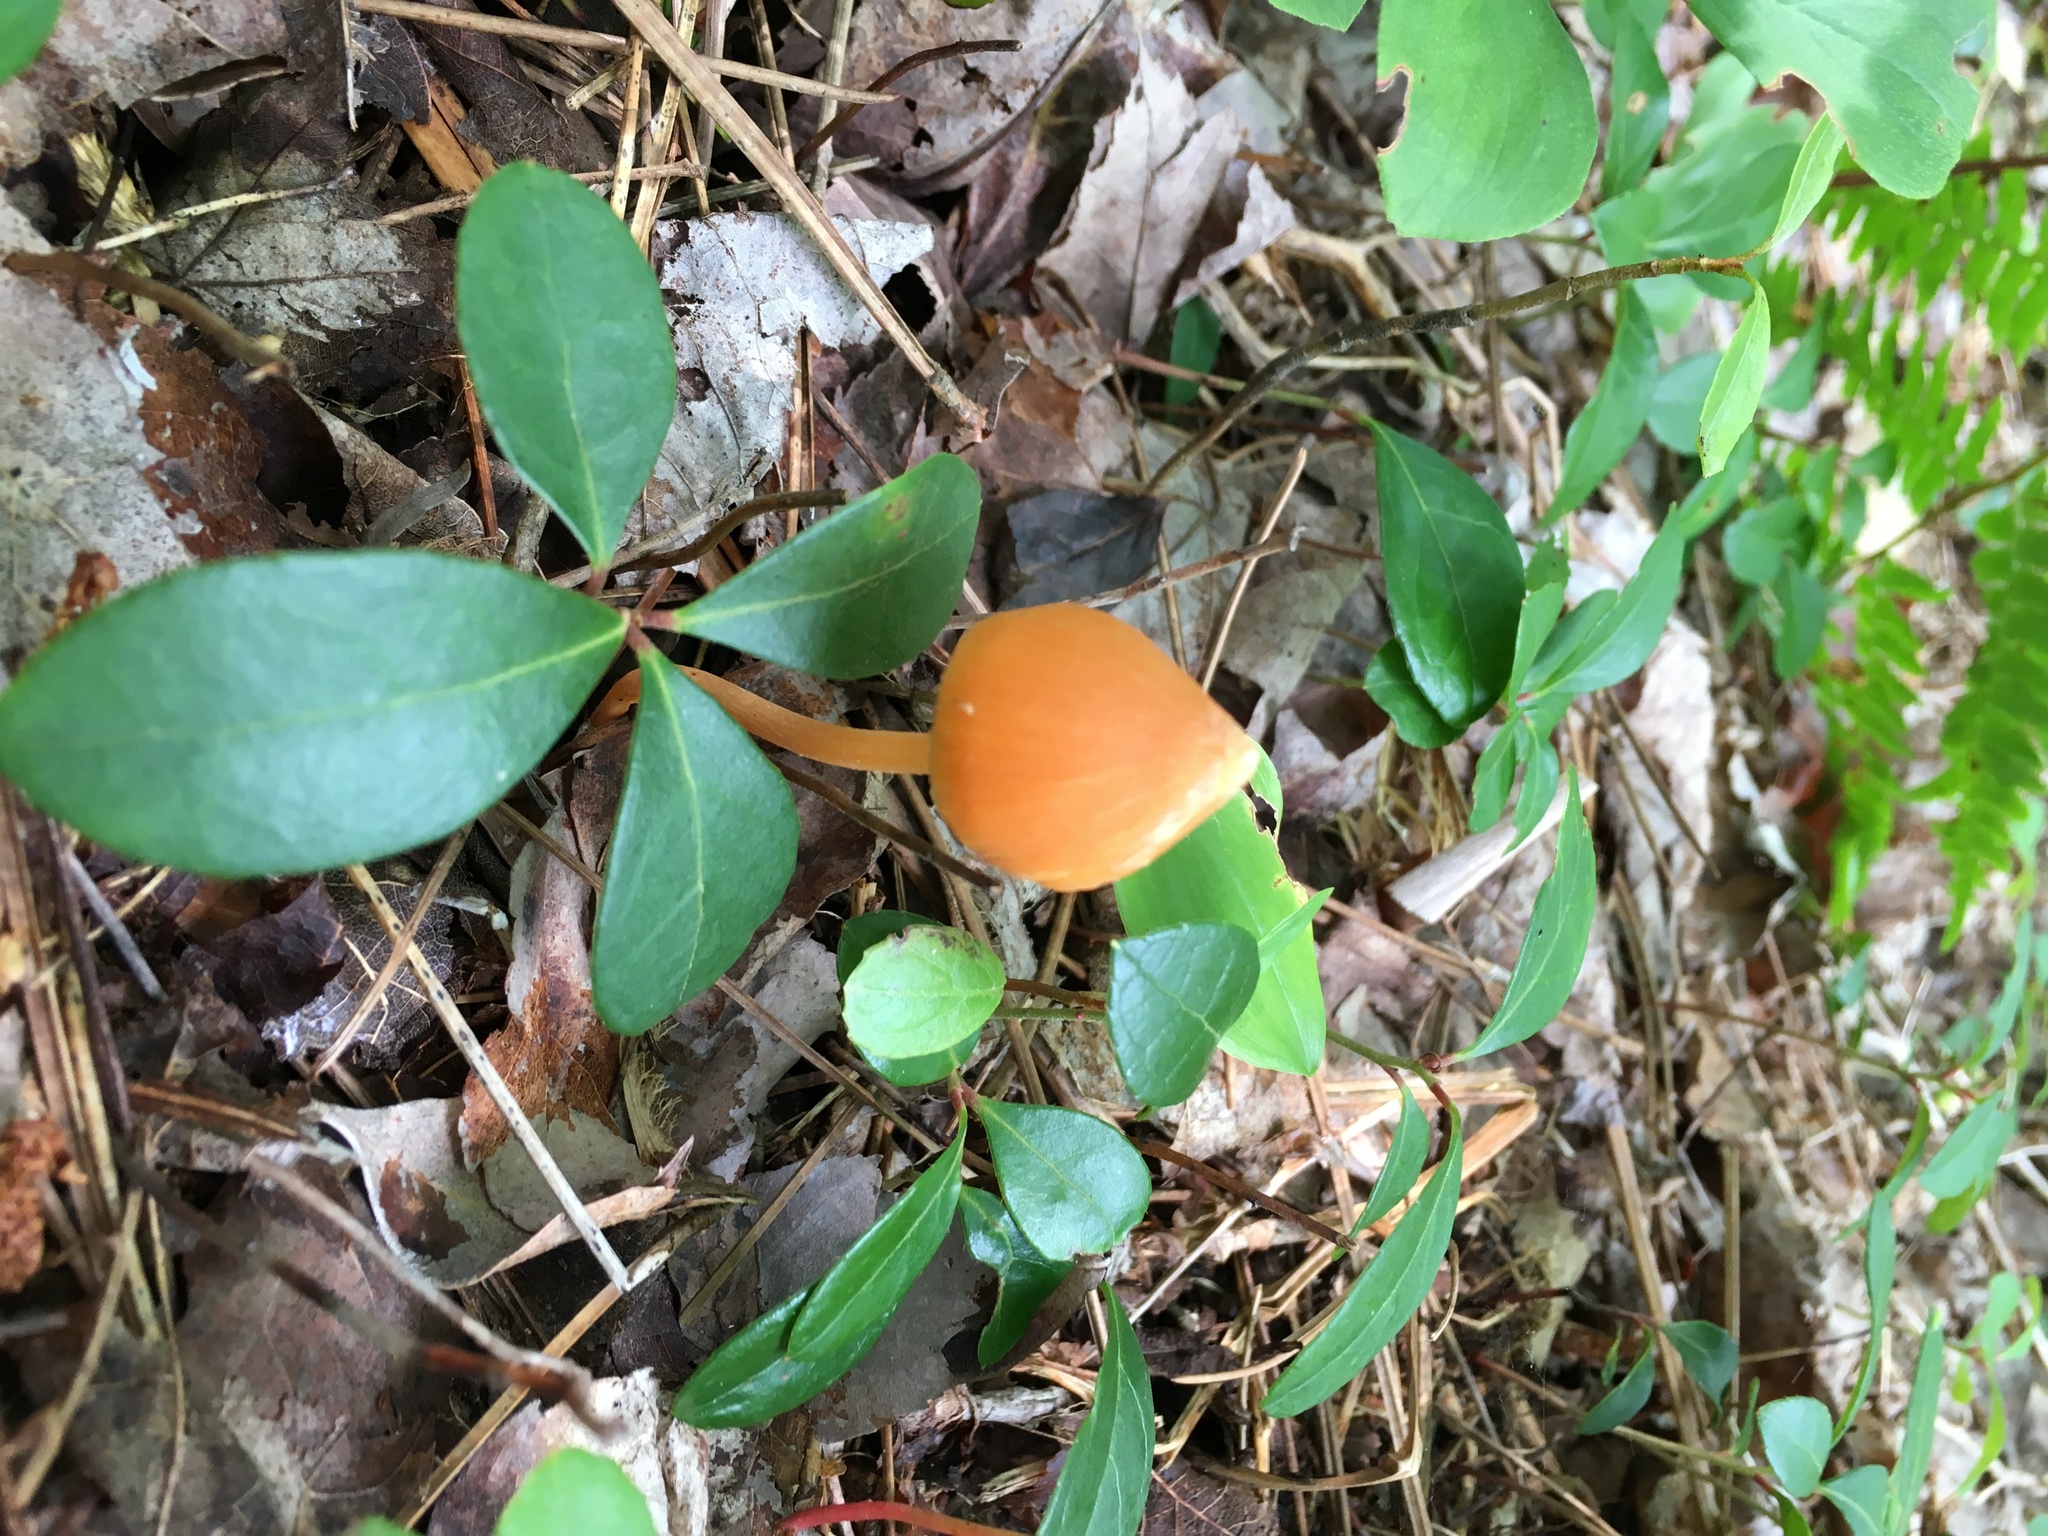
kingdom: Fungi
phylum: Basidiomycota
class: Agaricomycetes
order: Agaricales
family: Entolomataceae
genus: Entoloma
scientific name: Entoloma quadratum
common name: Salmon pinkgill
